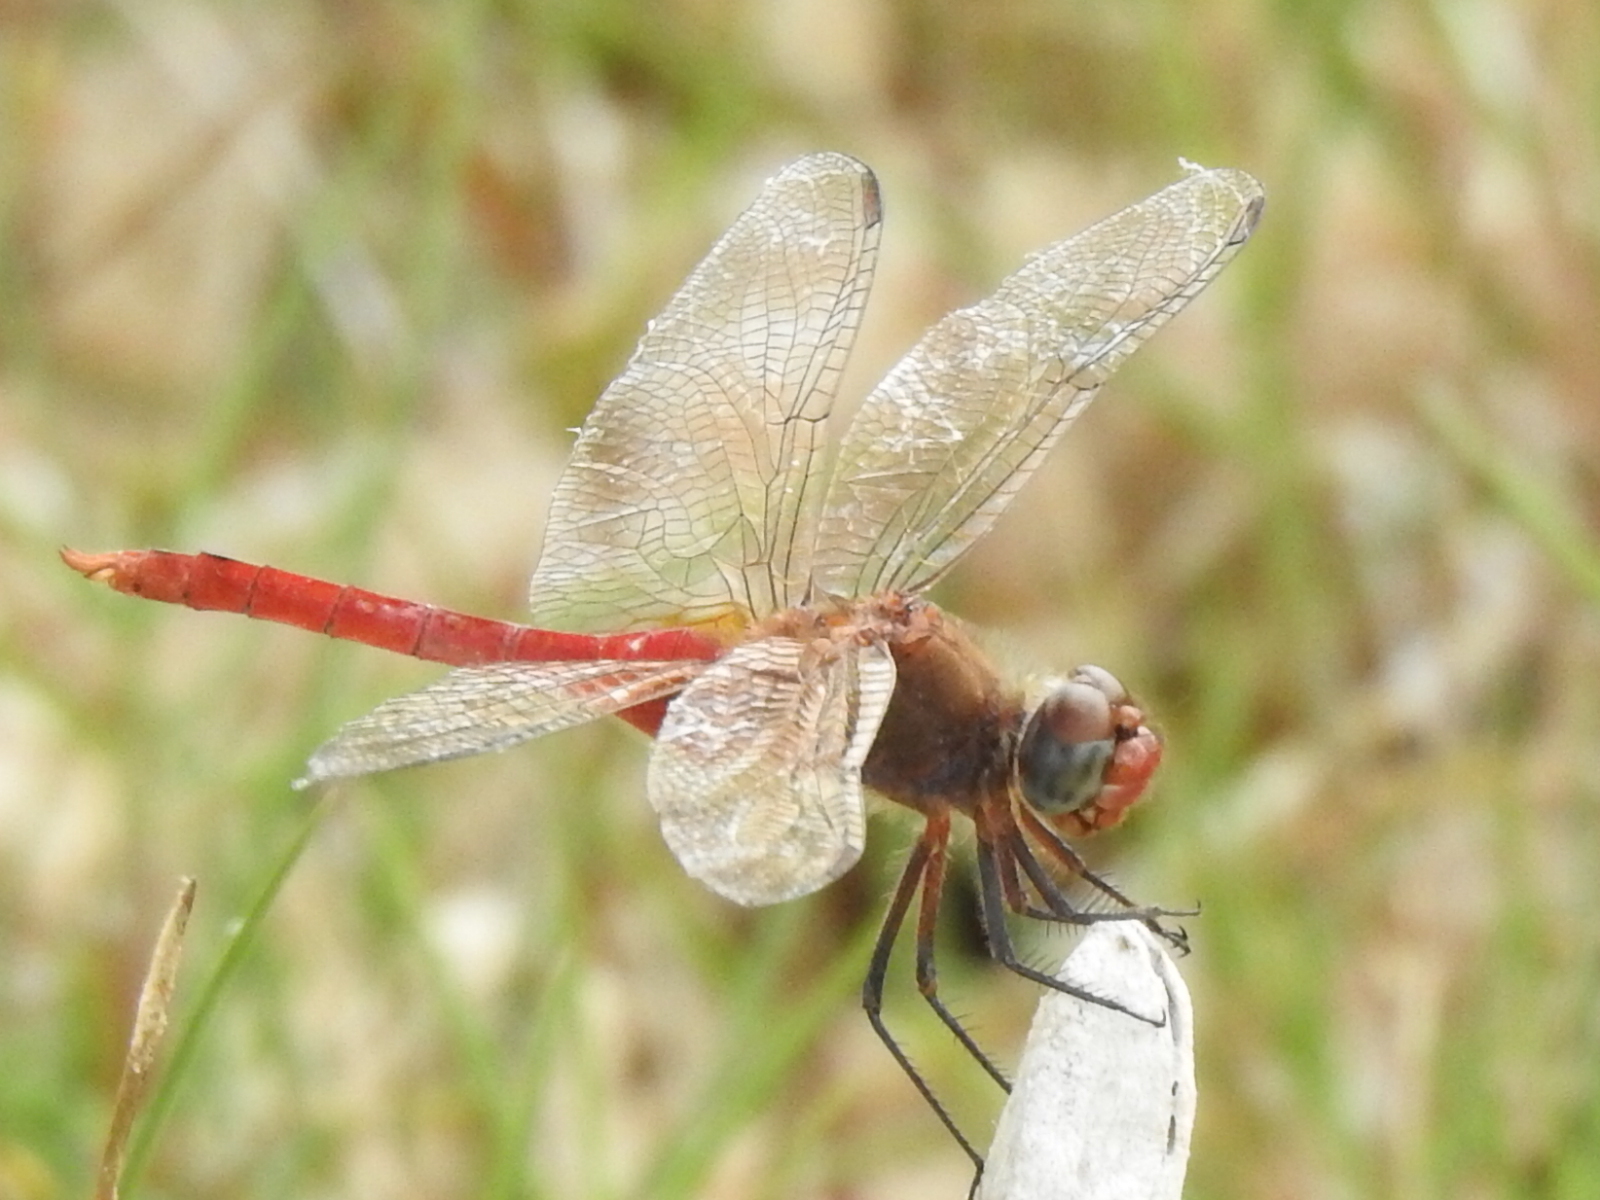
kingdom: Animalia
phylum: Arthropoda
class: Insecta
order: Odonata
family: Libellulidae
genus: Brachymesia
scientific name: Brachymesia furcata
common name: Red-taled pennant
